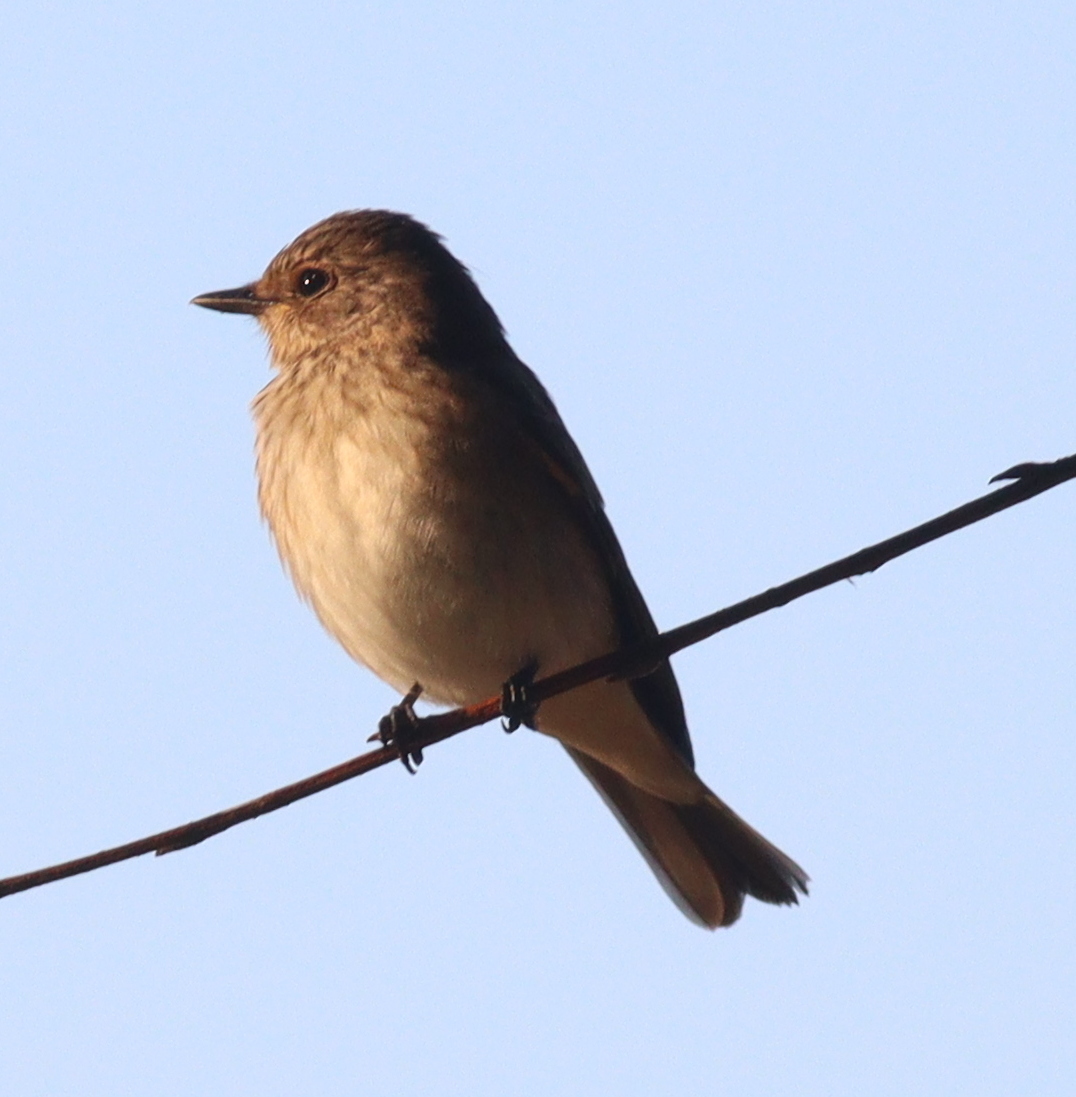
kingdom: Animalia
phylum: Chordata
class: Aves
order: Passeriformes
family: Muscicapidae
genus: Muscicapa
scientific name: Muscicapa striata
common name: Spotted flycatcher
